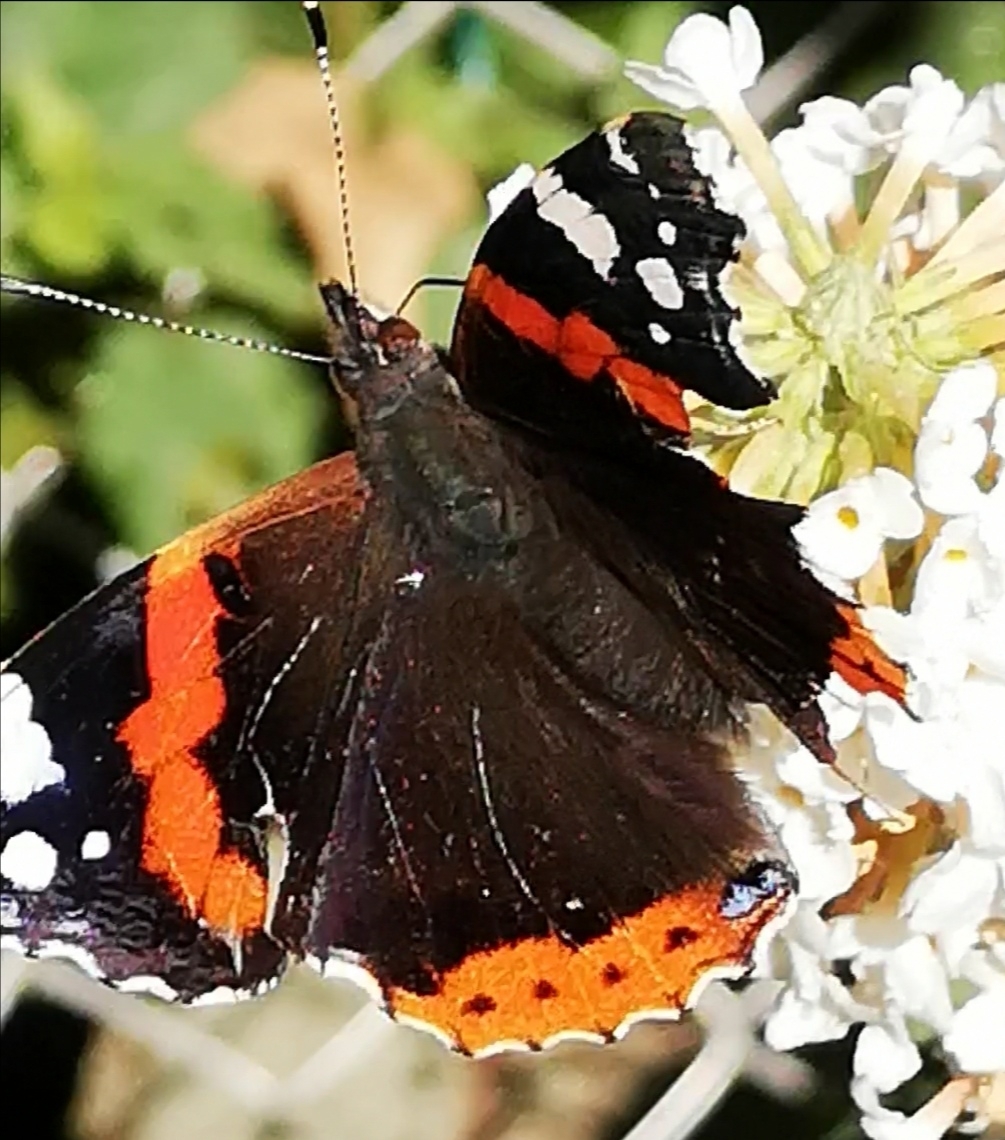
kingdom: Animalia
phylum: Arthropoda
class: Insecta
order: Lepidoptera
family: Nymphalidae
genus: Vanessa
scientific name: Vanessa atalanta
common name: Red admiral
